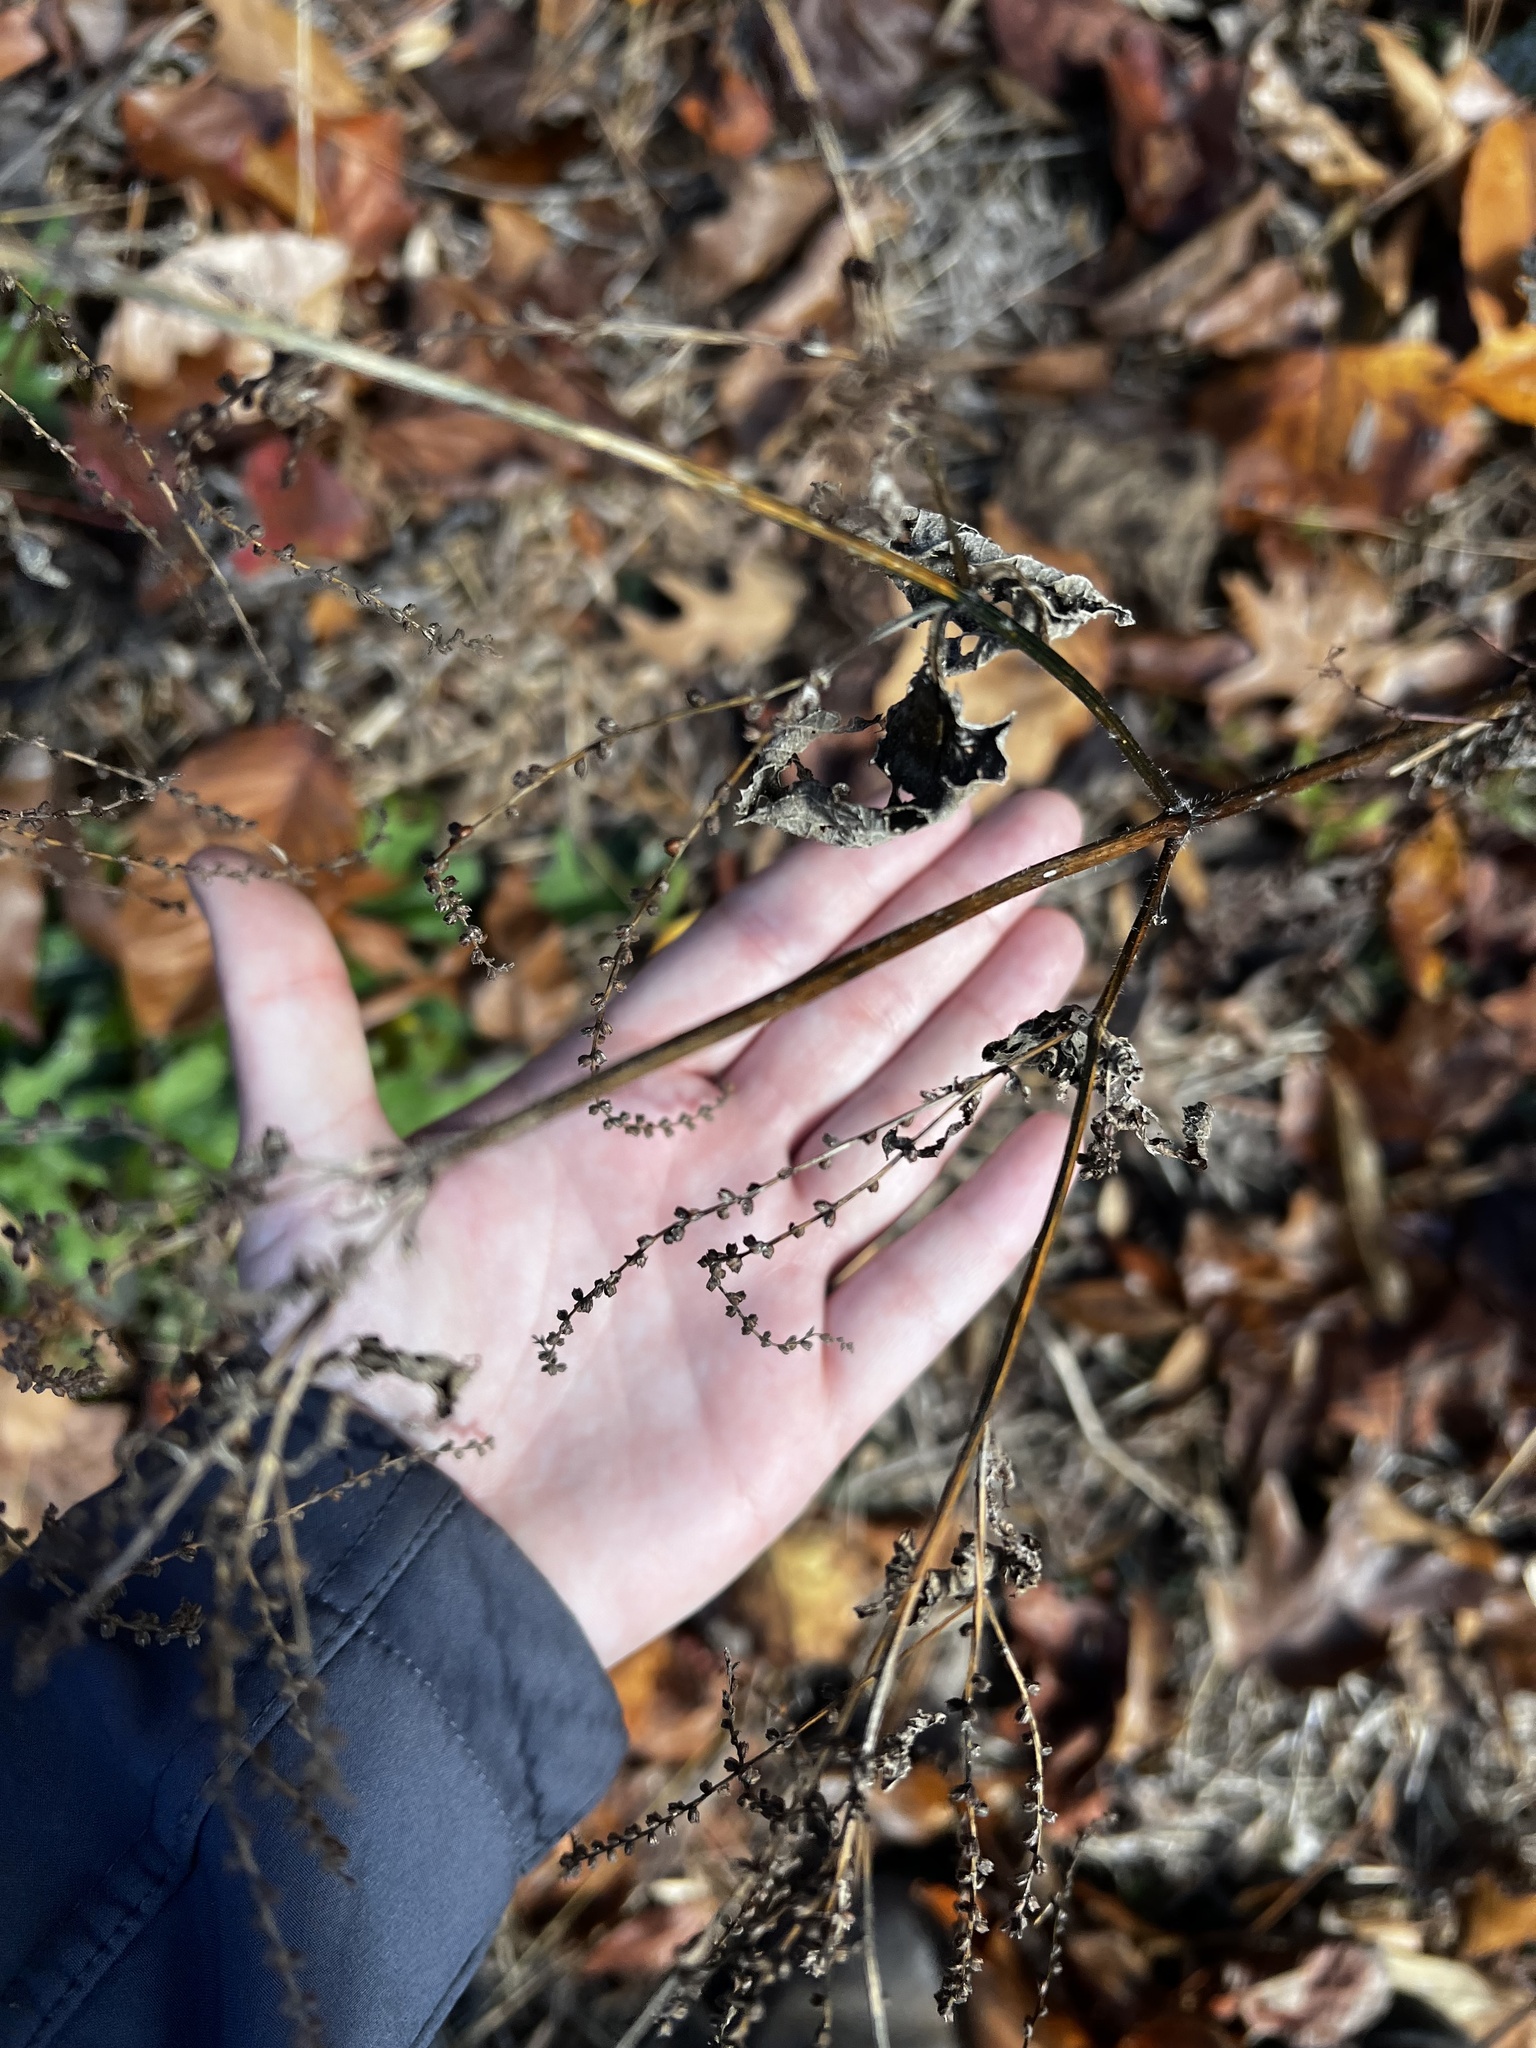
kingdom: Plantae
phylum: Tracheophyta
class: Magnoliopsida
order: Lamiales
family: Verbenaceae
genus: Verbena
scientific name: Verbena urticifolia
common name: Nettle-leaved vervain
